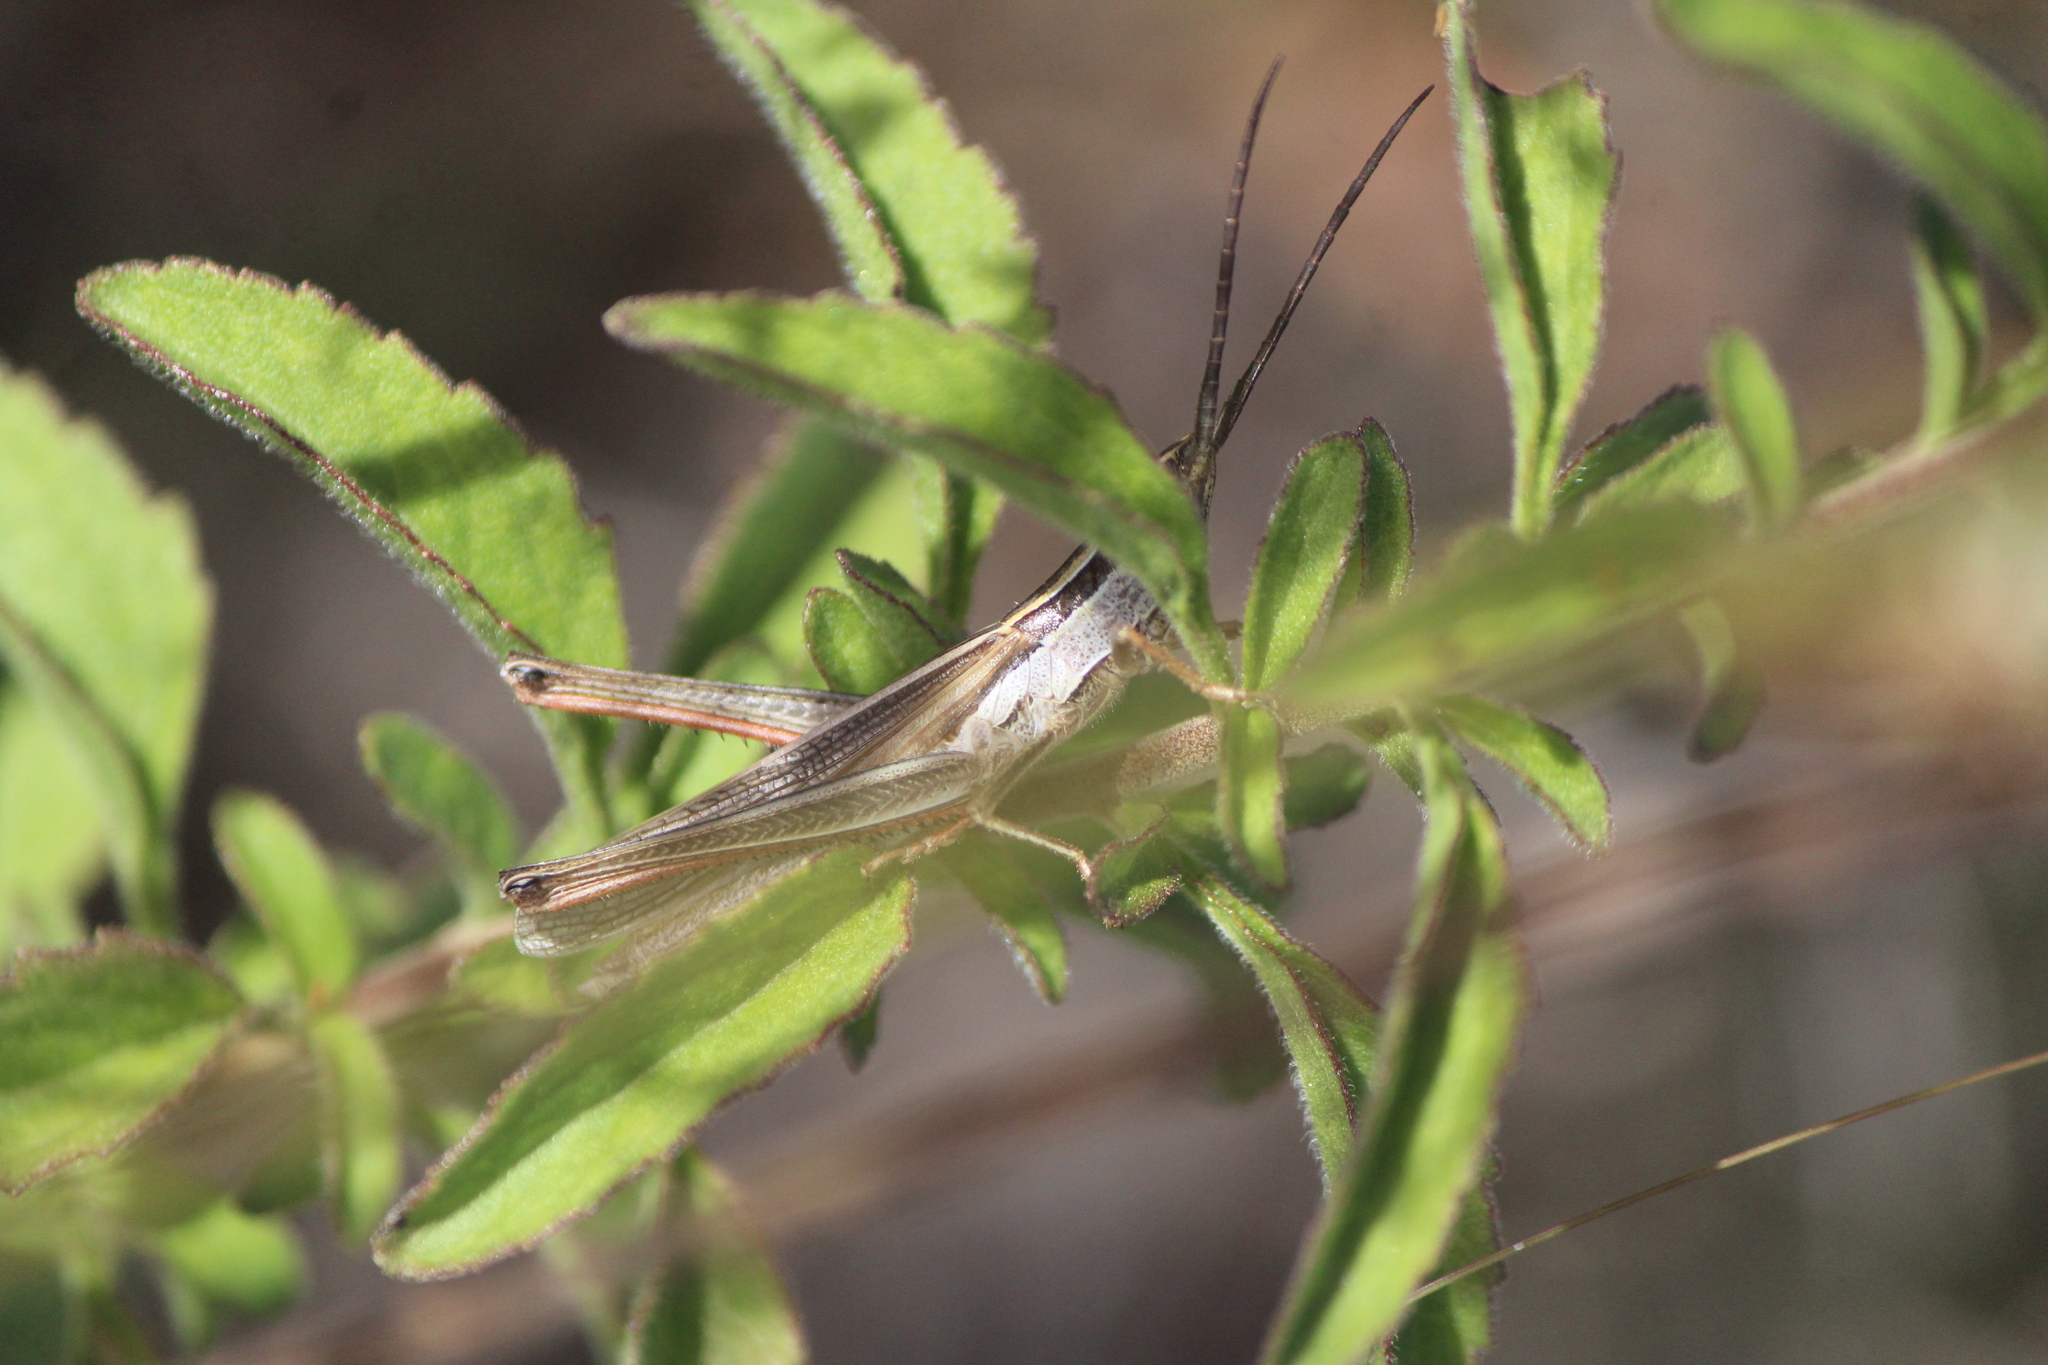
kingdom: Animalia
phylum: Arthropoda
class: Insecta
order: Orthoptera
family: Acrididae
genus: Mermiria
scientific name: Mermiria picta
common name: Lively mermiria grasshopper
